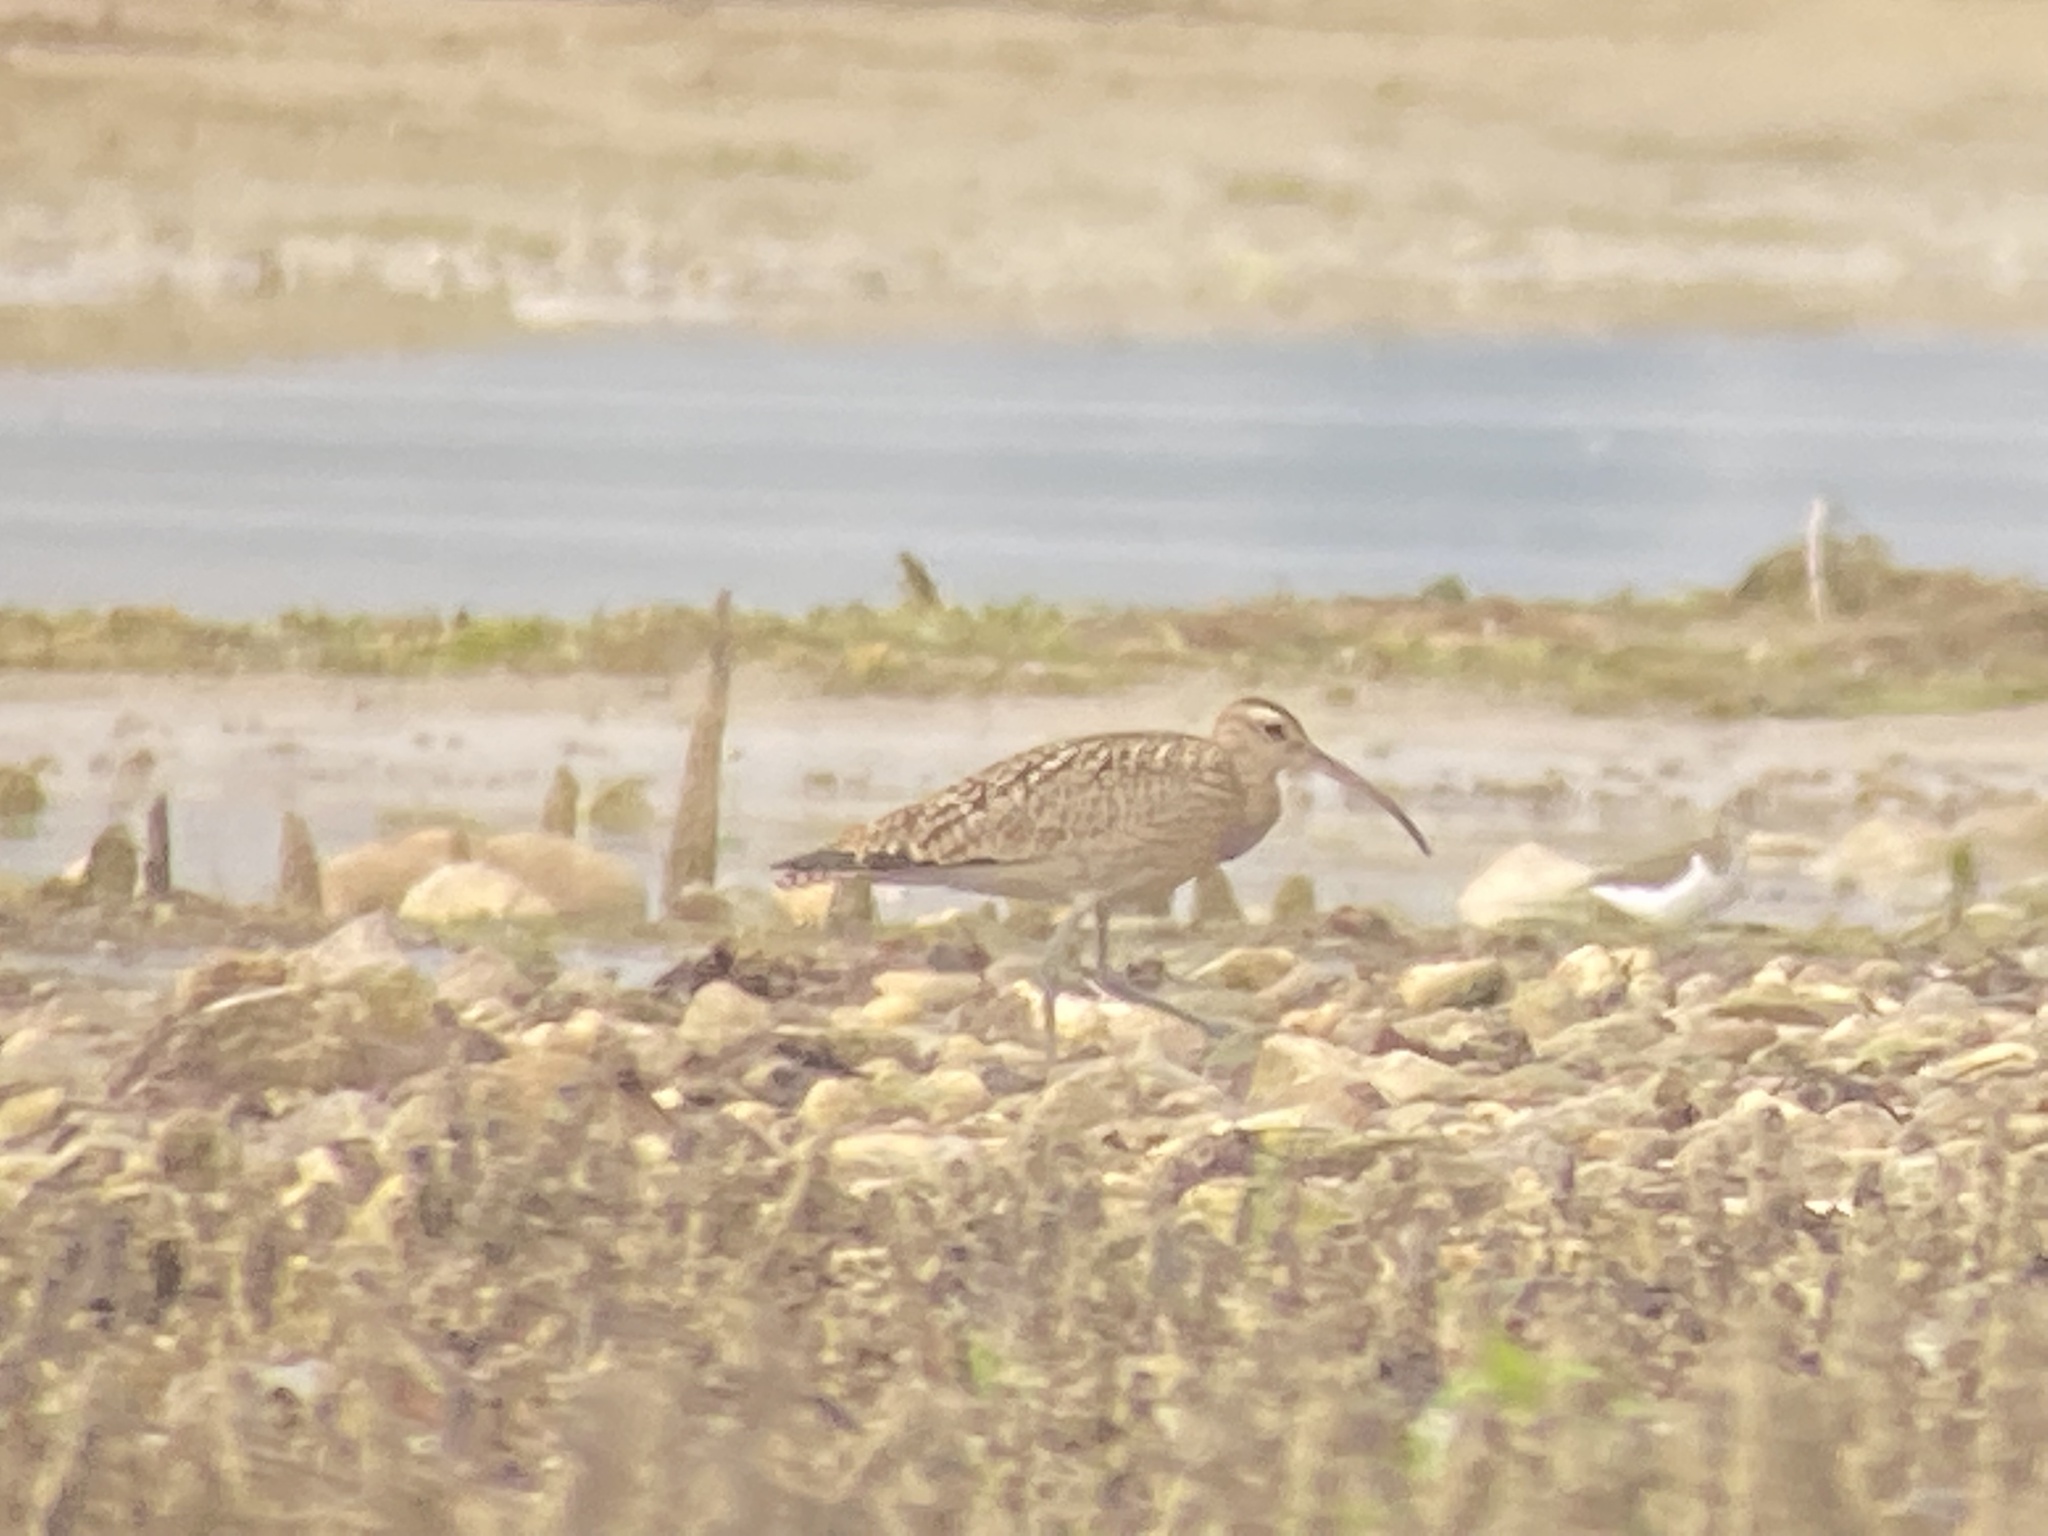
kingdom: Animalia
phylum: Chordata
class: Aves
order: Charadriiformes
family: Scolopacidae
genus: Numenius
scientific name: Numenius phaeopus
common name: Whimbrel
